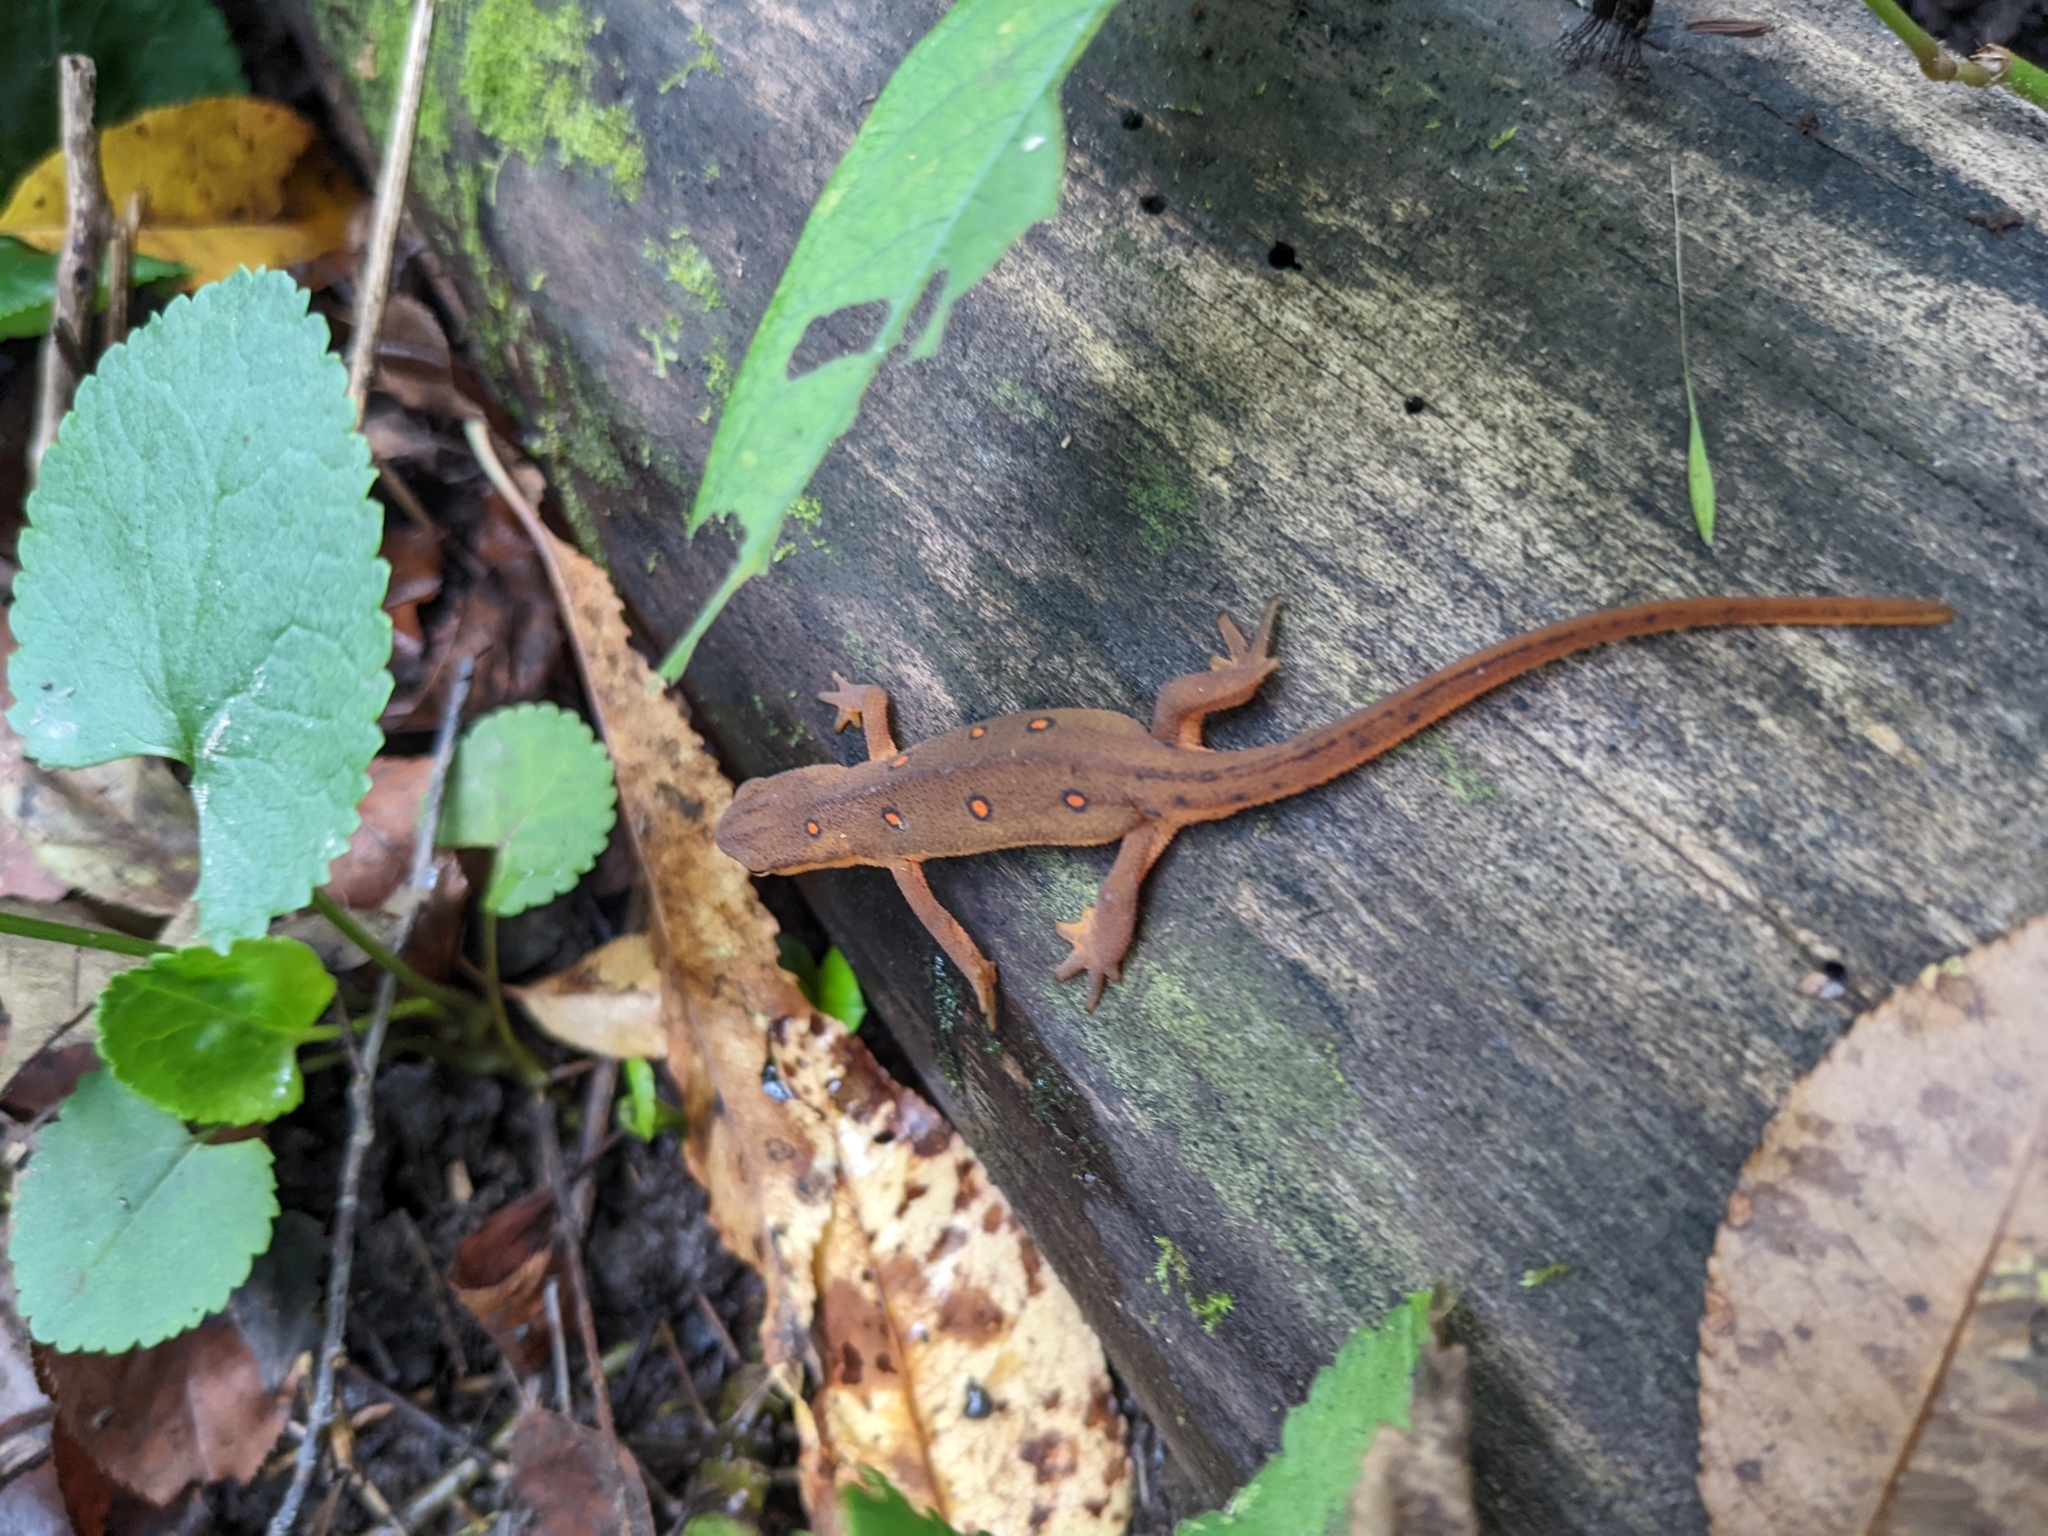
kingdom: Animalia
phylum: Chordata
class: Amphibia
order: Caudata
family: Salamandridae
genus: Notophthalmus
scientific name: Notophthalmus viridescens
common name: Eastern newt
